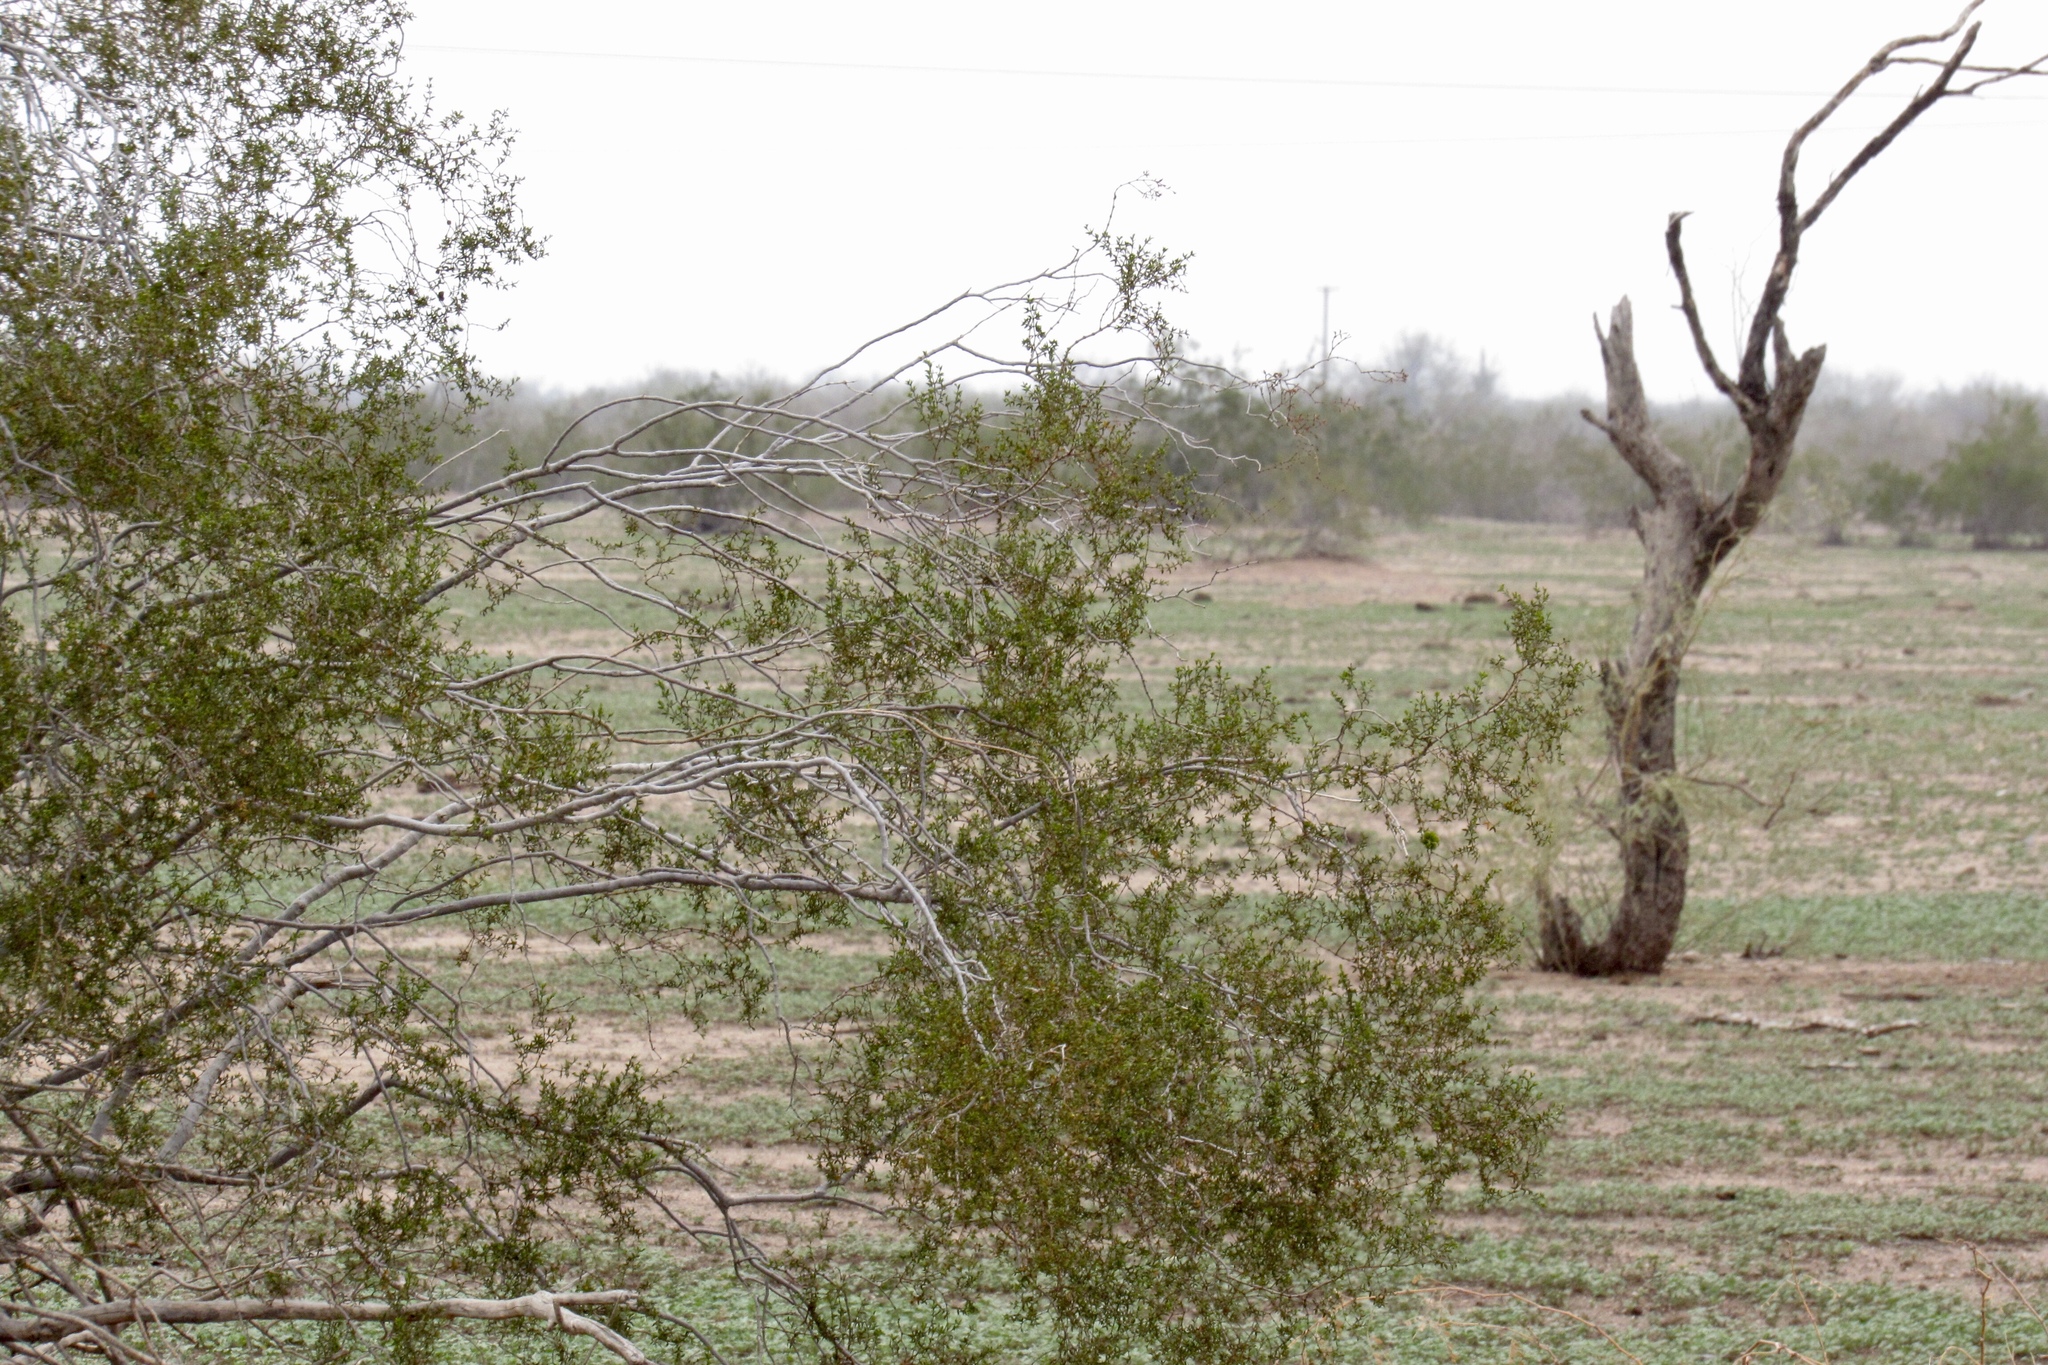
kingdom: Plantae
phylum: Tracheophyta
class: Magnoliopsida
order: Zygophyllales
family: Zygophyllaceae
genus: Larrea
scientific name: Larrea tridentata
